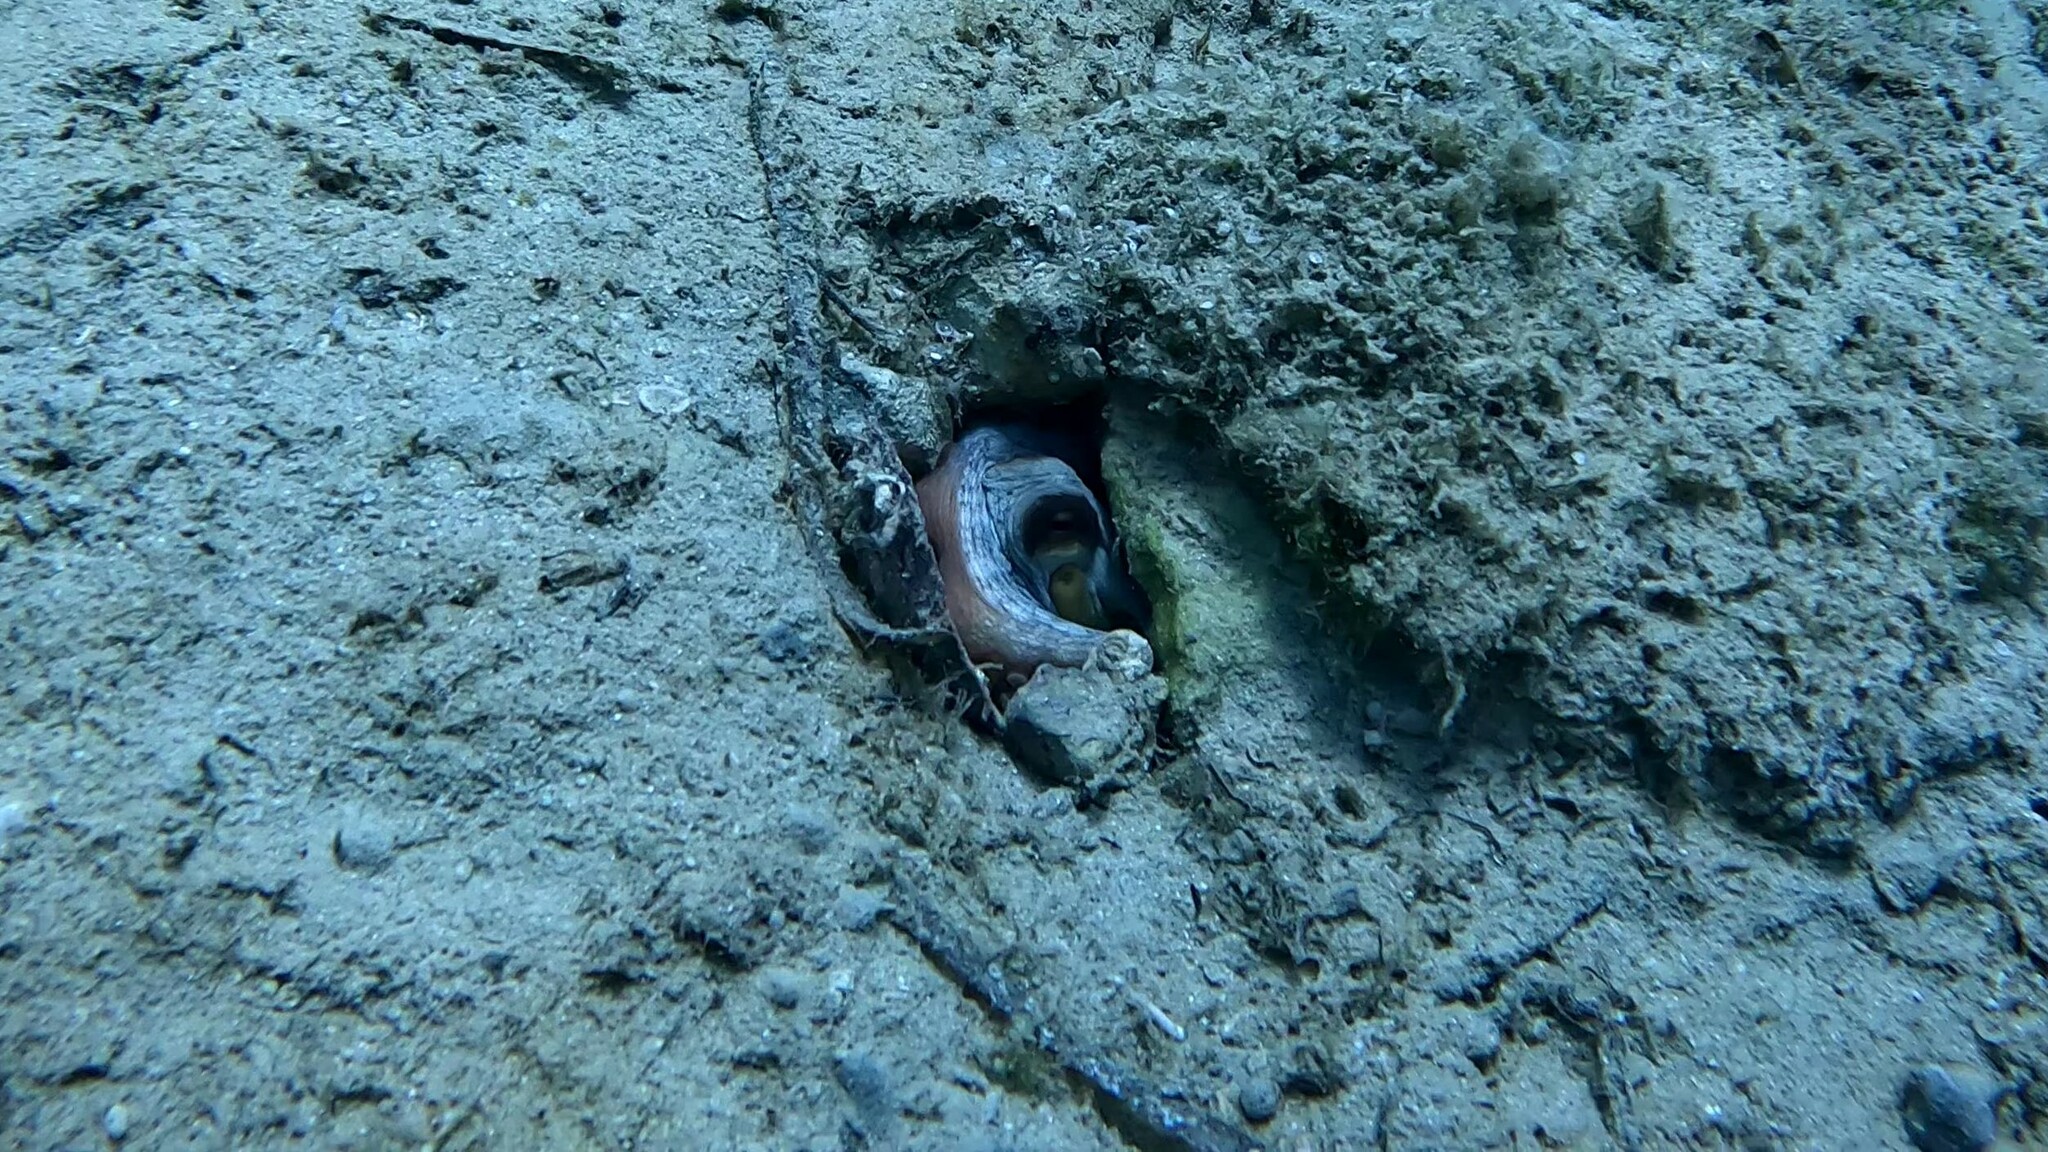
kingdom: Animalia
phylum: Mollusca
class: Cephalopoda
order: Octopoda
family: Octopodidae
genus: Octopus
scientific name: Octopus vulgaris
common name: Common octopus
